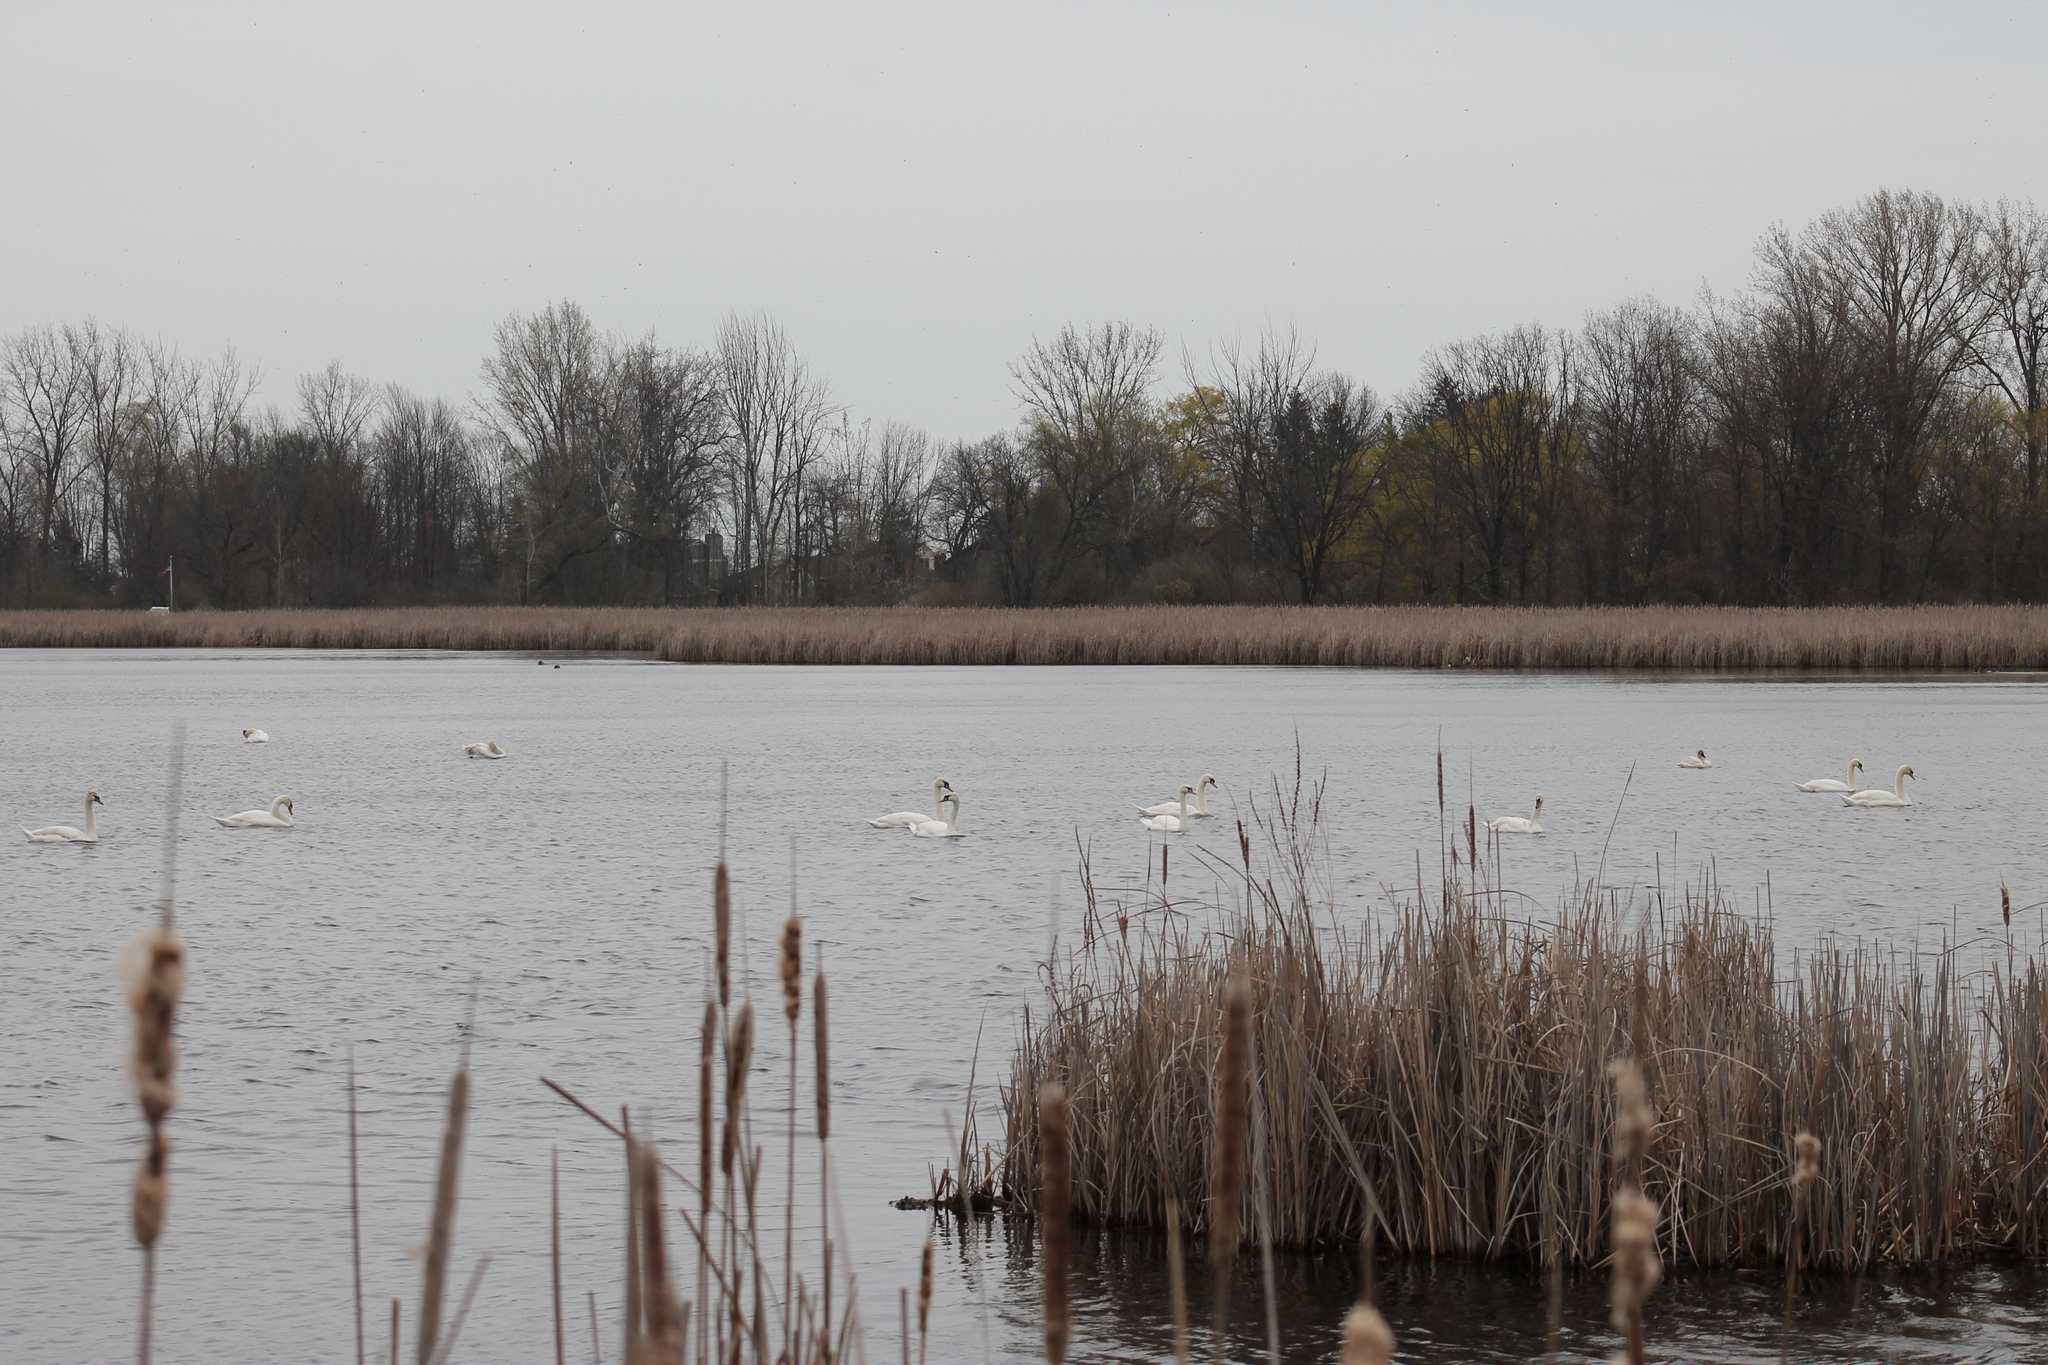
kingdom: Animalia
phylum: Chordata
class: Aves
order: Anseriformes
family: Anatidae
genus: Cygnus
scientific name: Cygnus olor
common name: Mute swan
